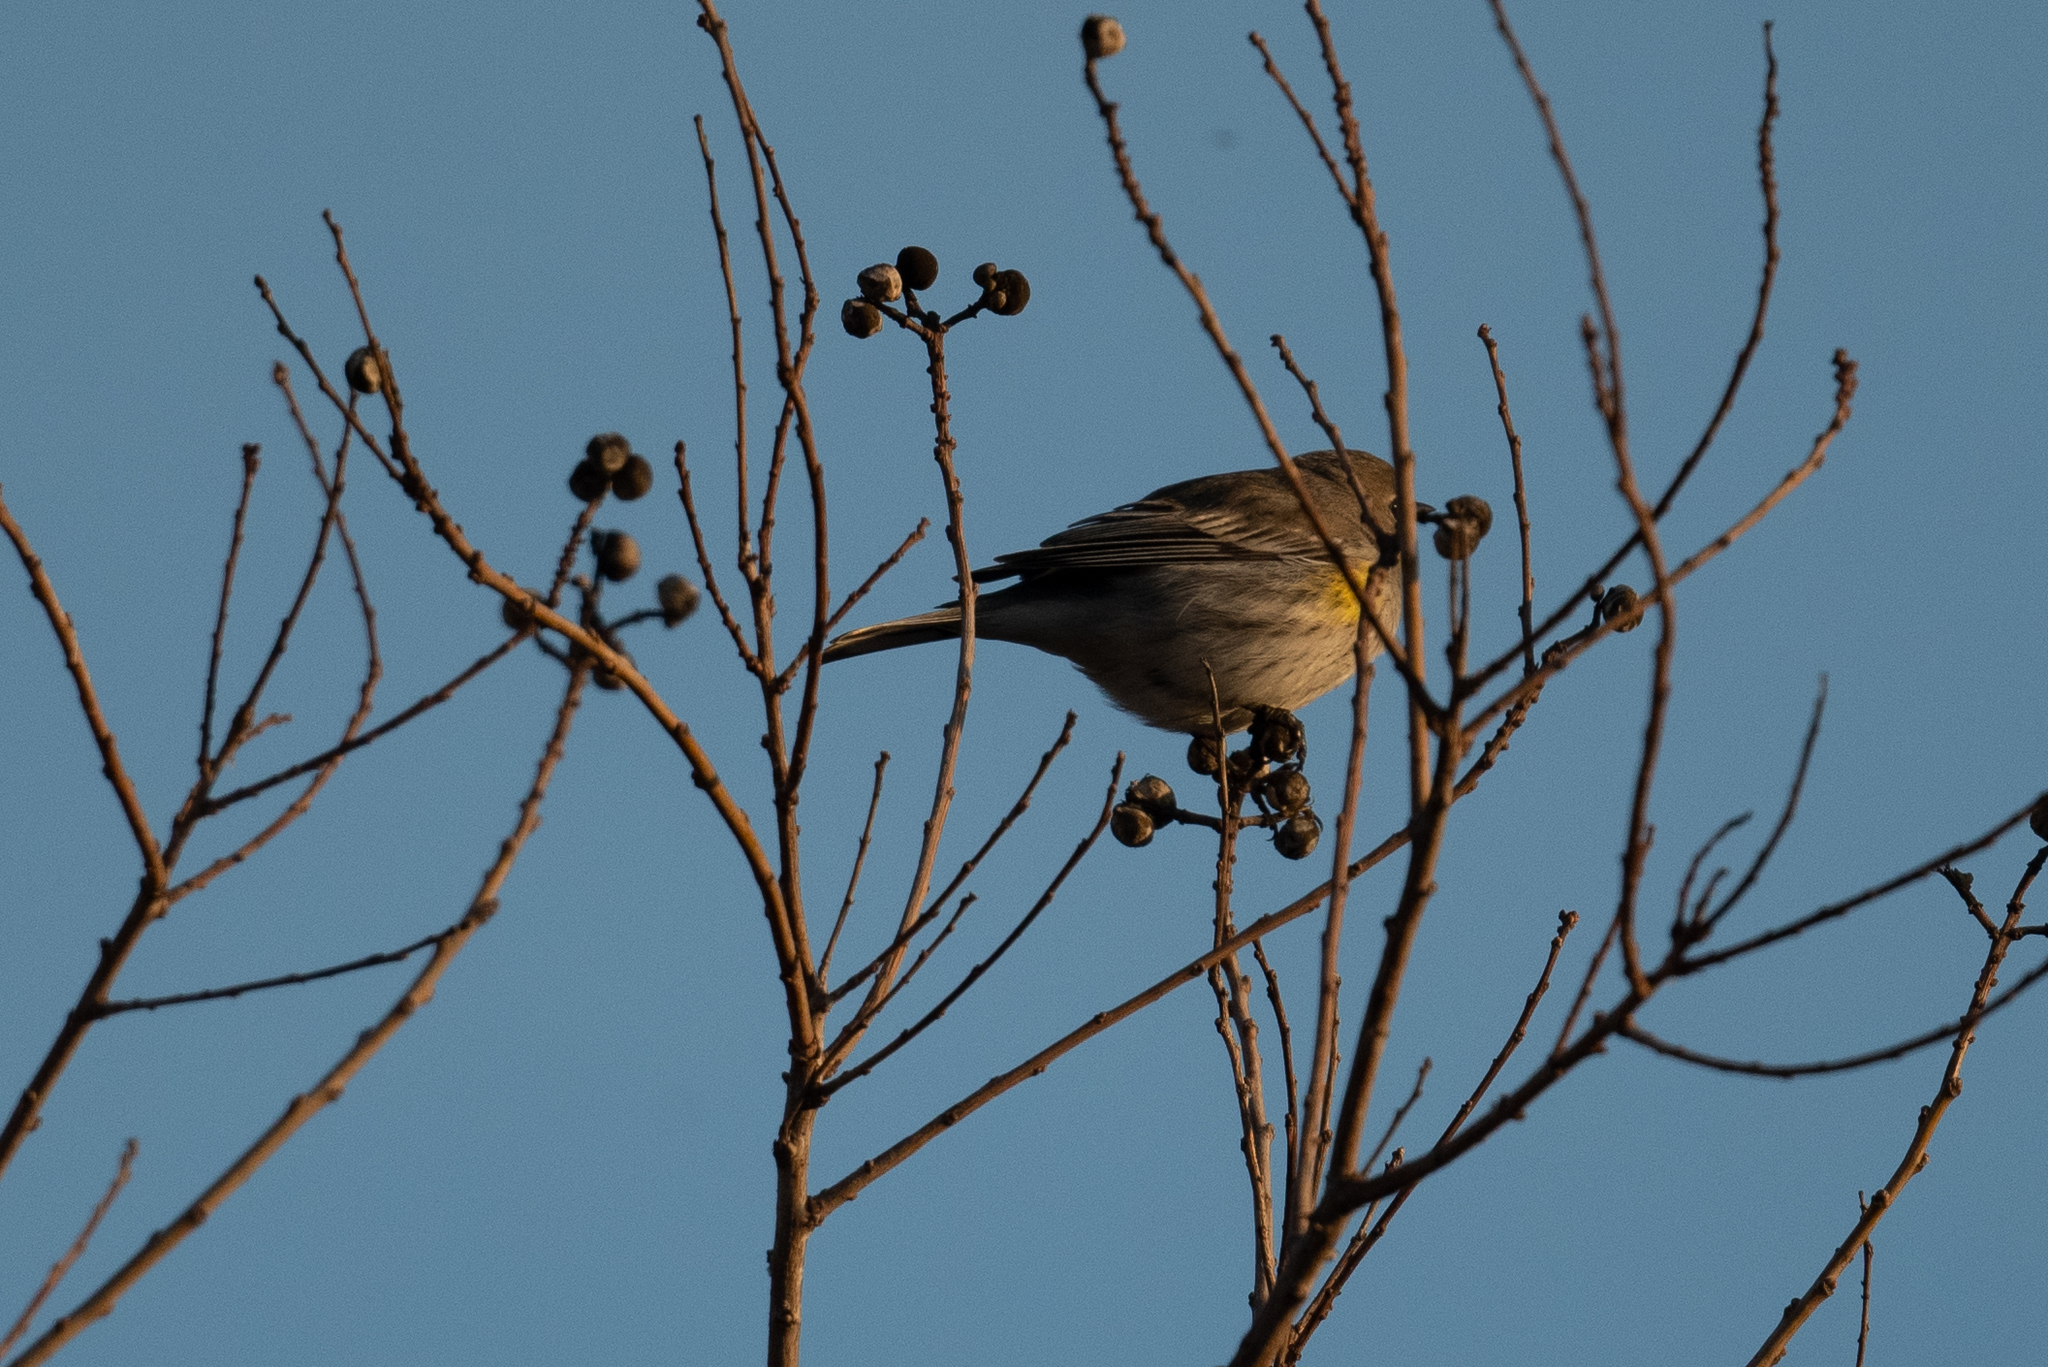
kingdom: Animalia
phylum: Chordata
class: Aves
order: Passeriformes
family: Parulidae
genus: Setophaga
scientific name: Setophaga coronata
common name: Myrtle warbler
